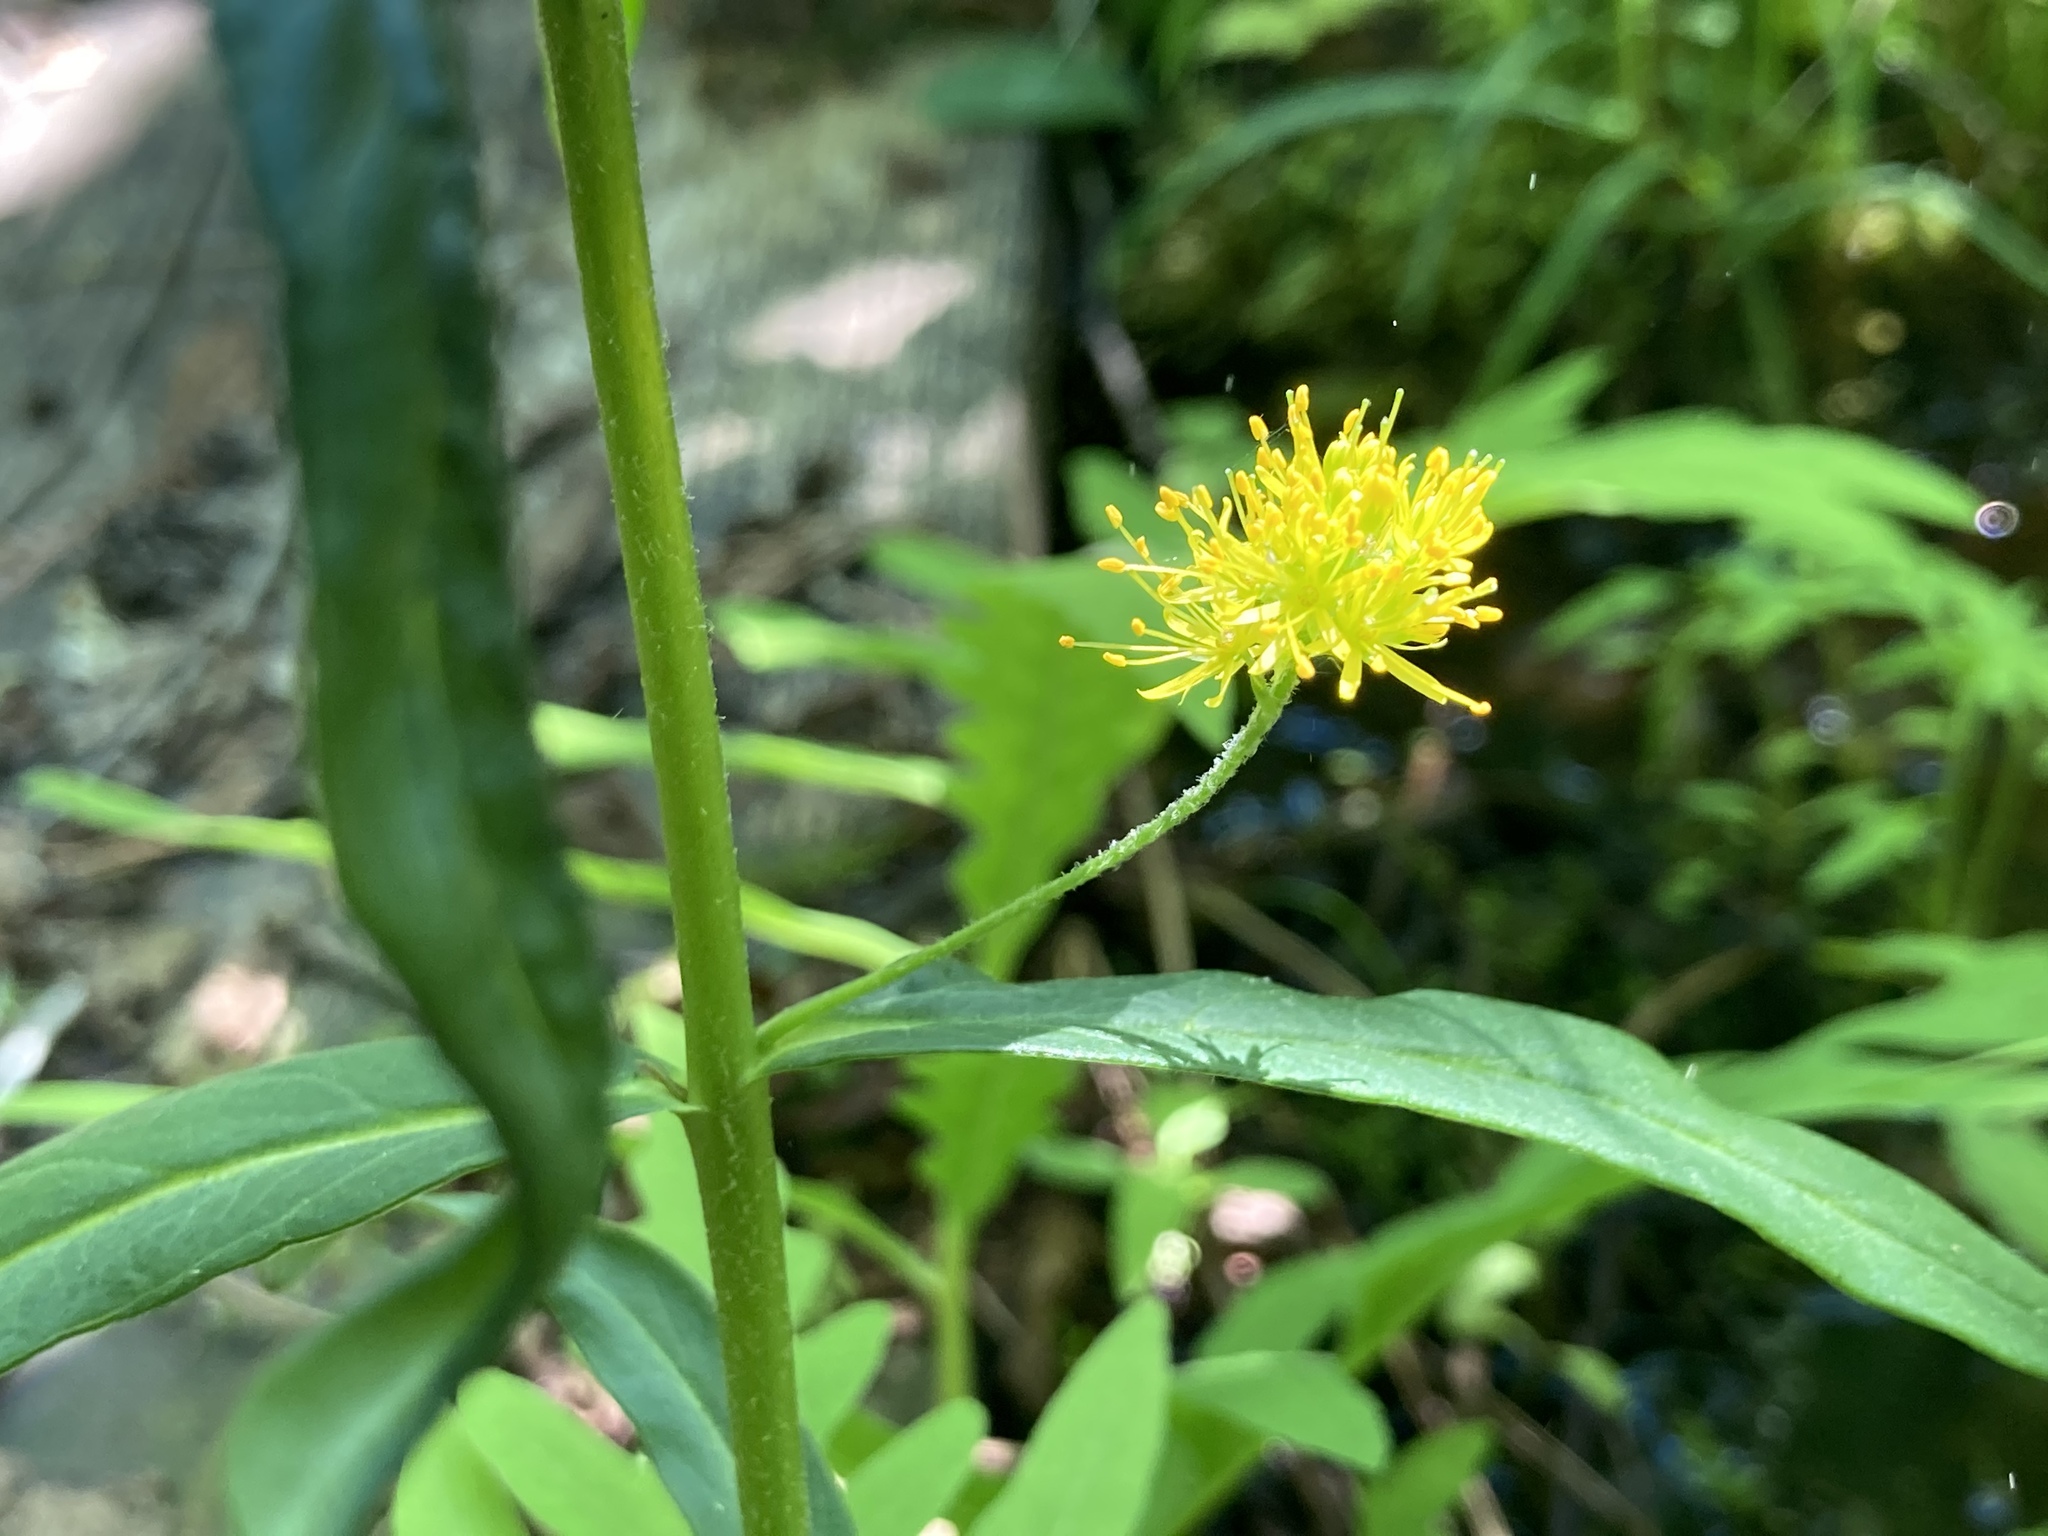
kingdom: Plantae
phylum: Tracheophyta
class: Magnoliopsida
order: Ericales
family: Primulaceae
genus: Lysimachia
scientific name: Lysimachia thyrsiflora
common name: Tufted loosestrife
